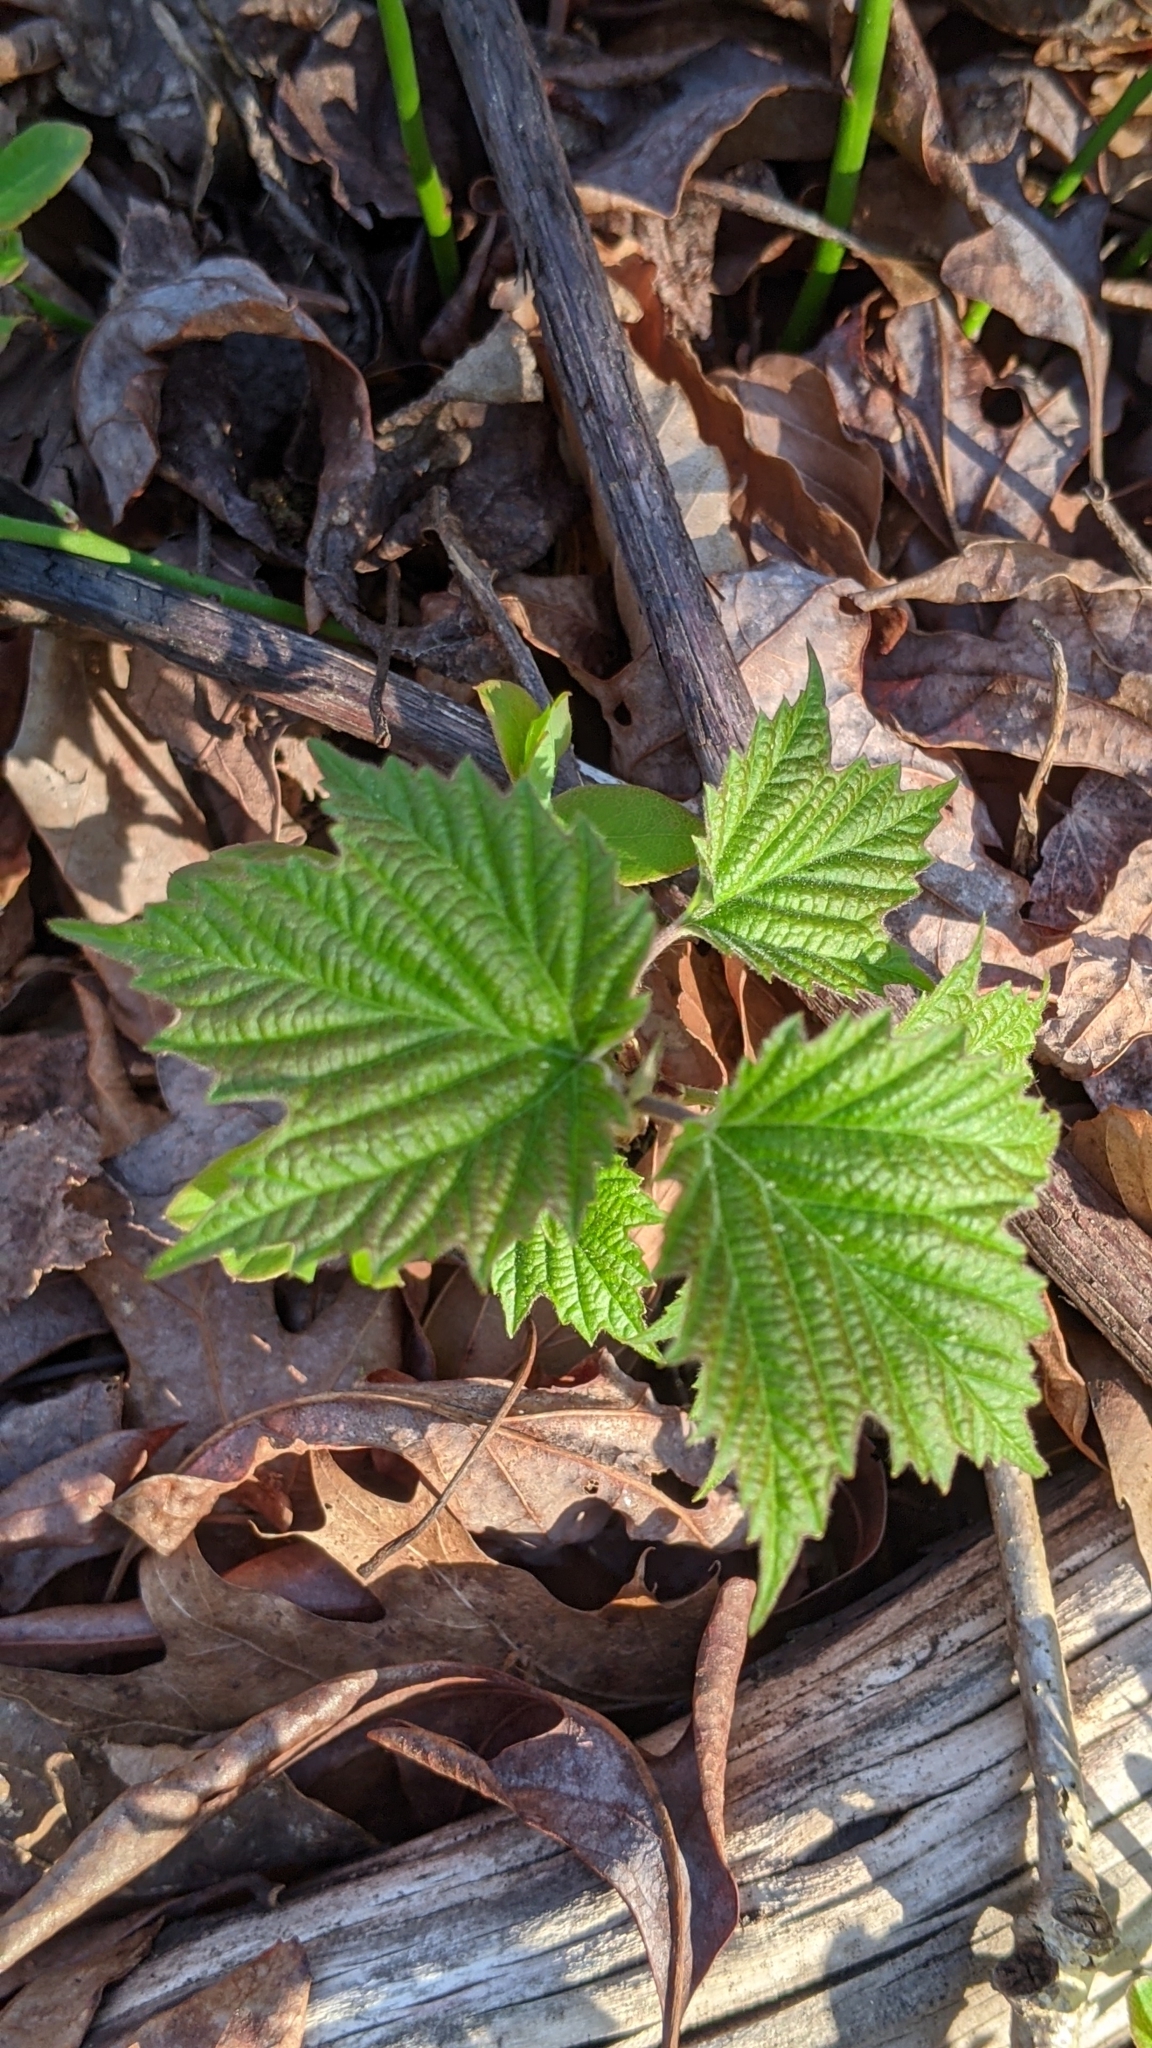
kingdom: Plantae
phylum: Tracheophyta
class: Magnoliopsida
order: Dipsacales
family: Viburnaceae
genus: Viburnum
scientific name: Viburnum acerifolium
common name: Dockmackie
